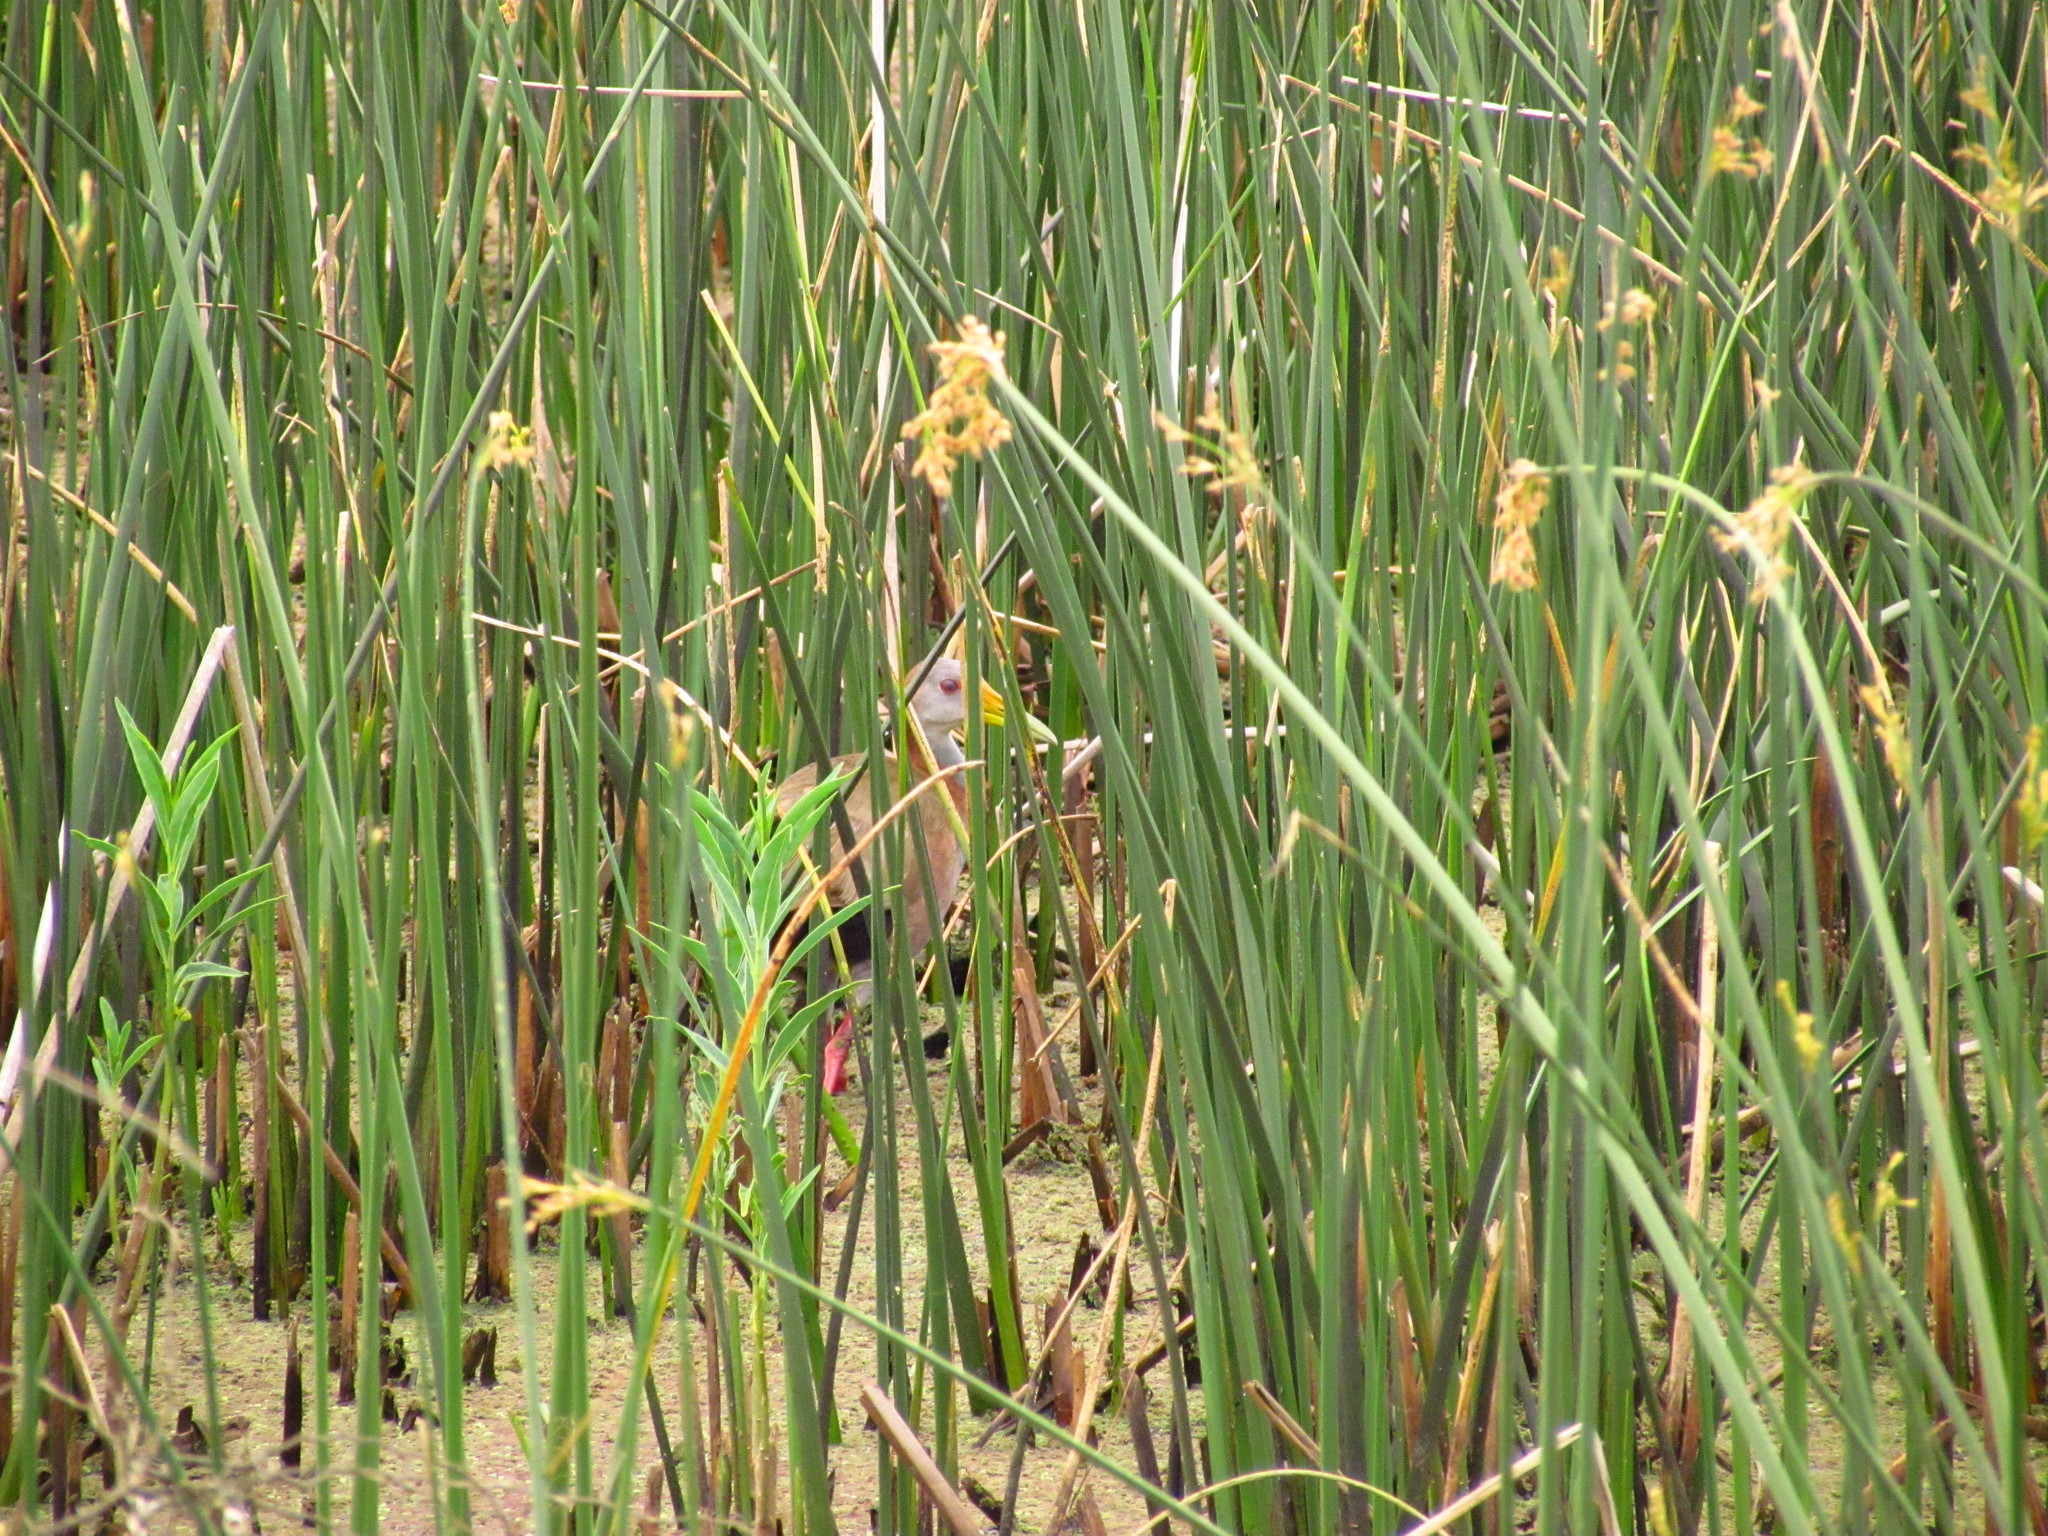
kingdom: Animalia
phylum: Chordata
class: Aves
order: Gruiformes
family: Rallidae
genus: Aramides
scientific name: Aramides ypecaha
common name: Giant wood rail
